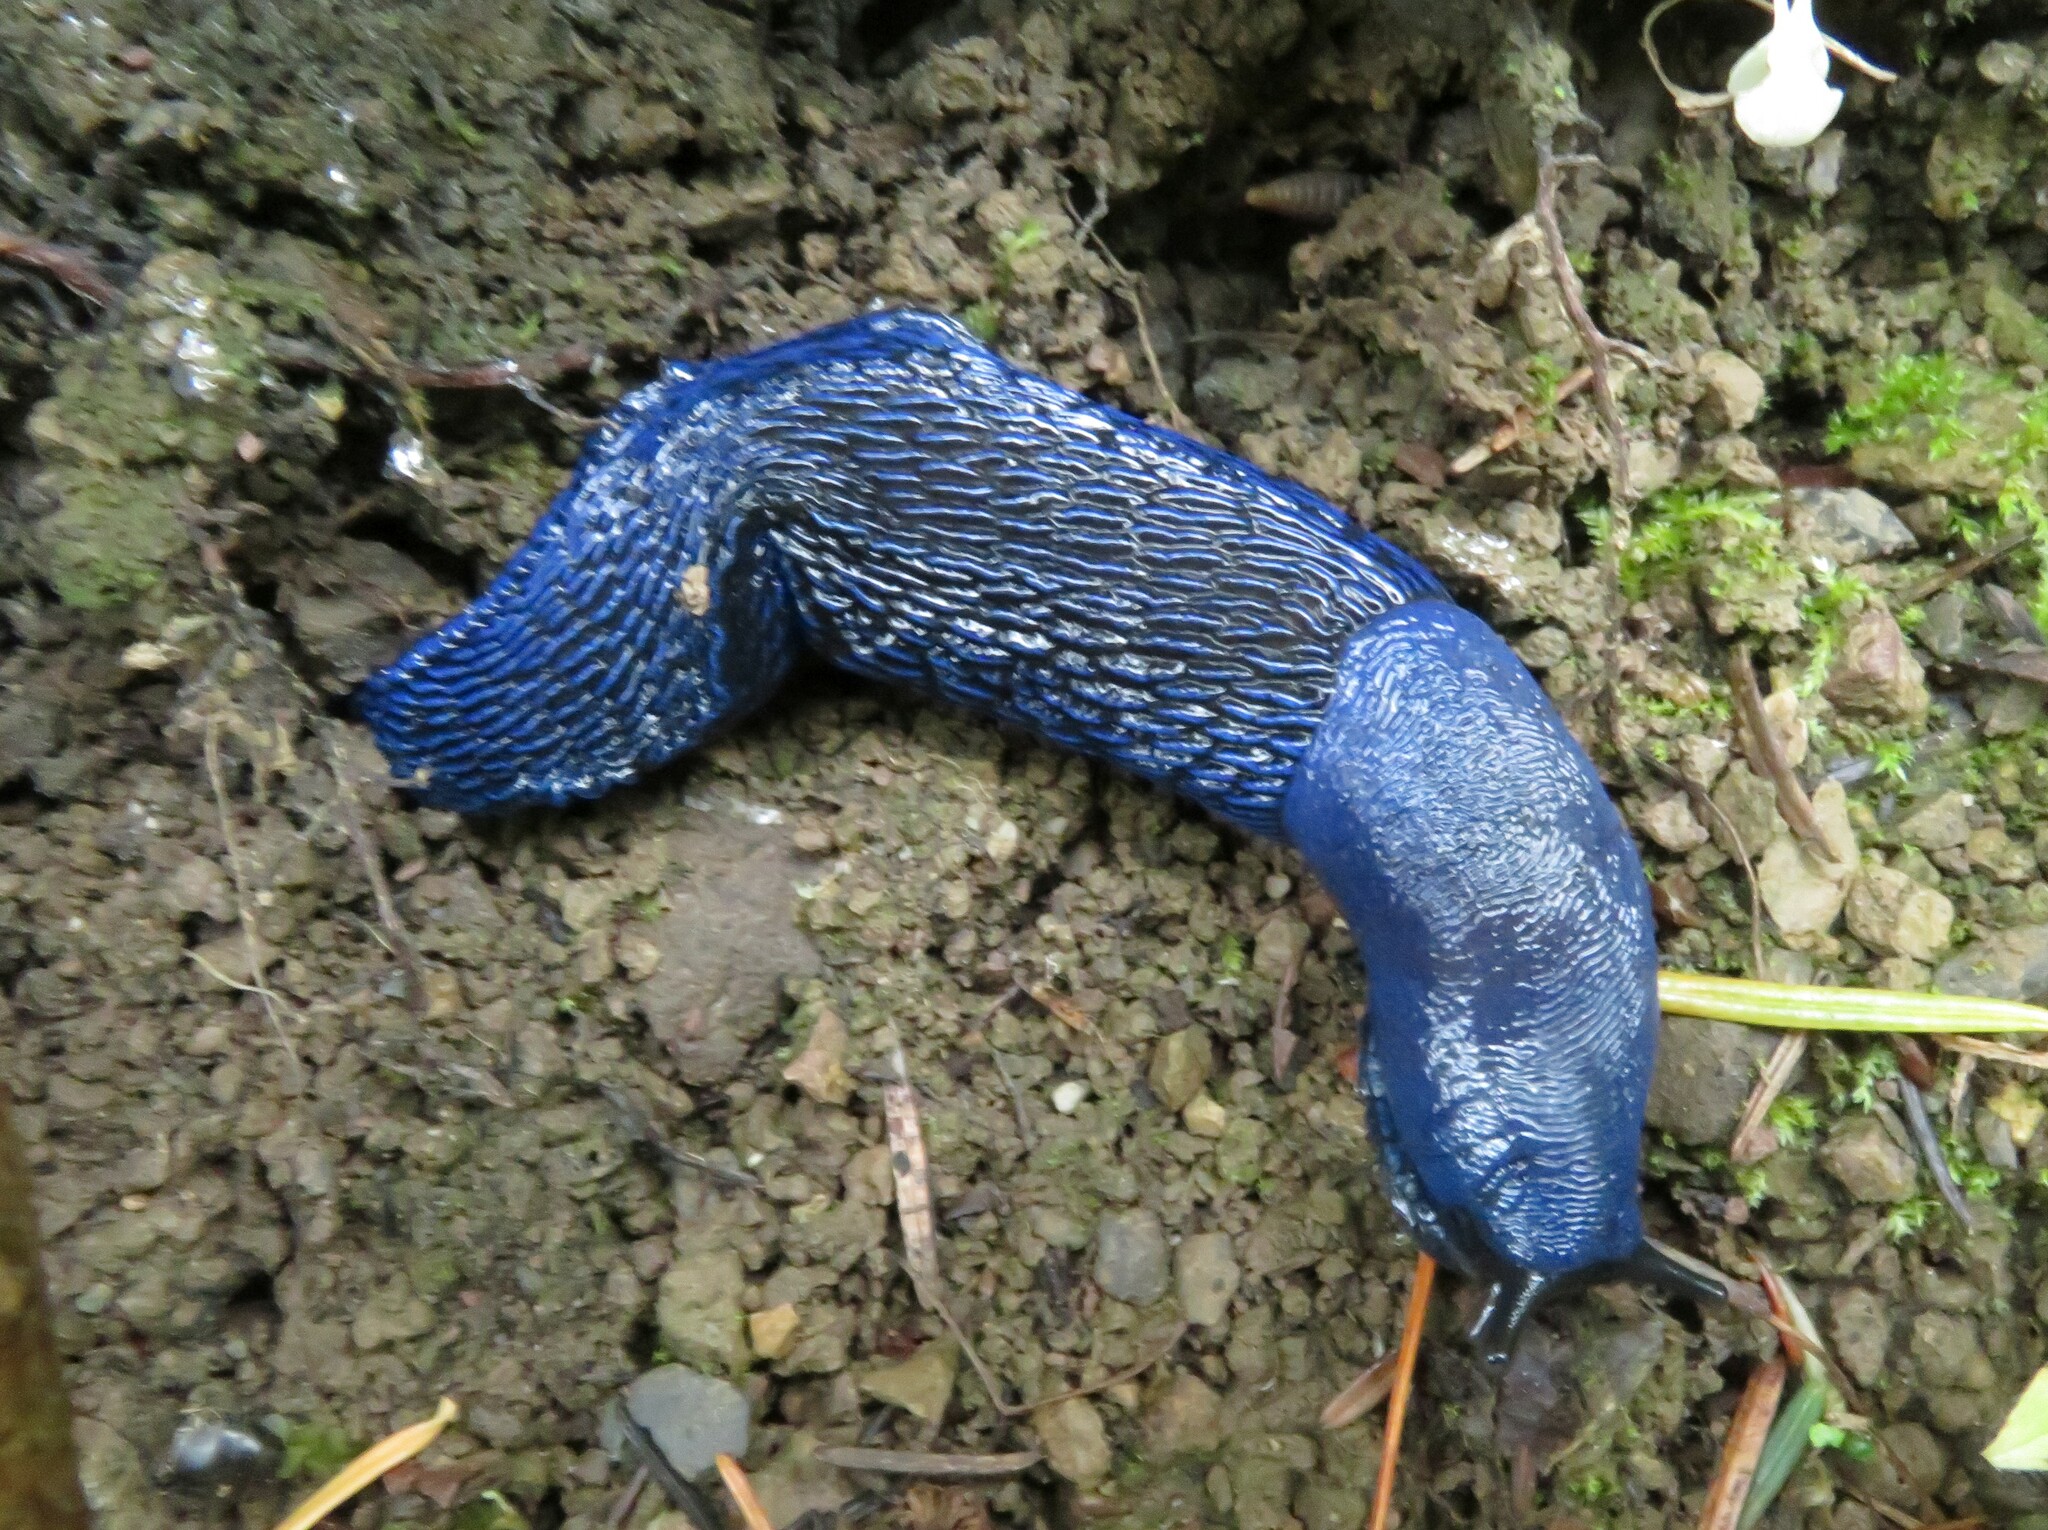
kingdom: Animalia
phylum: Mollusca
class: Gastropoda
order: Stylommatophora
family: Limacidae
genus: Bielzia
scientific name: Bielzia coerulans
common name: Carpathian blue slug
